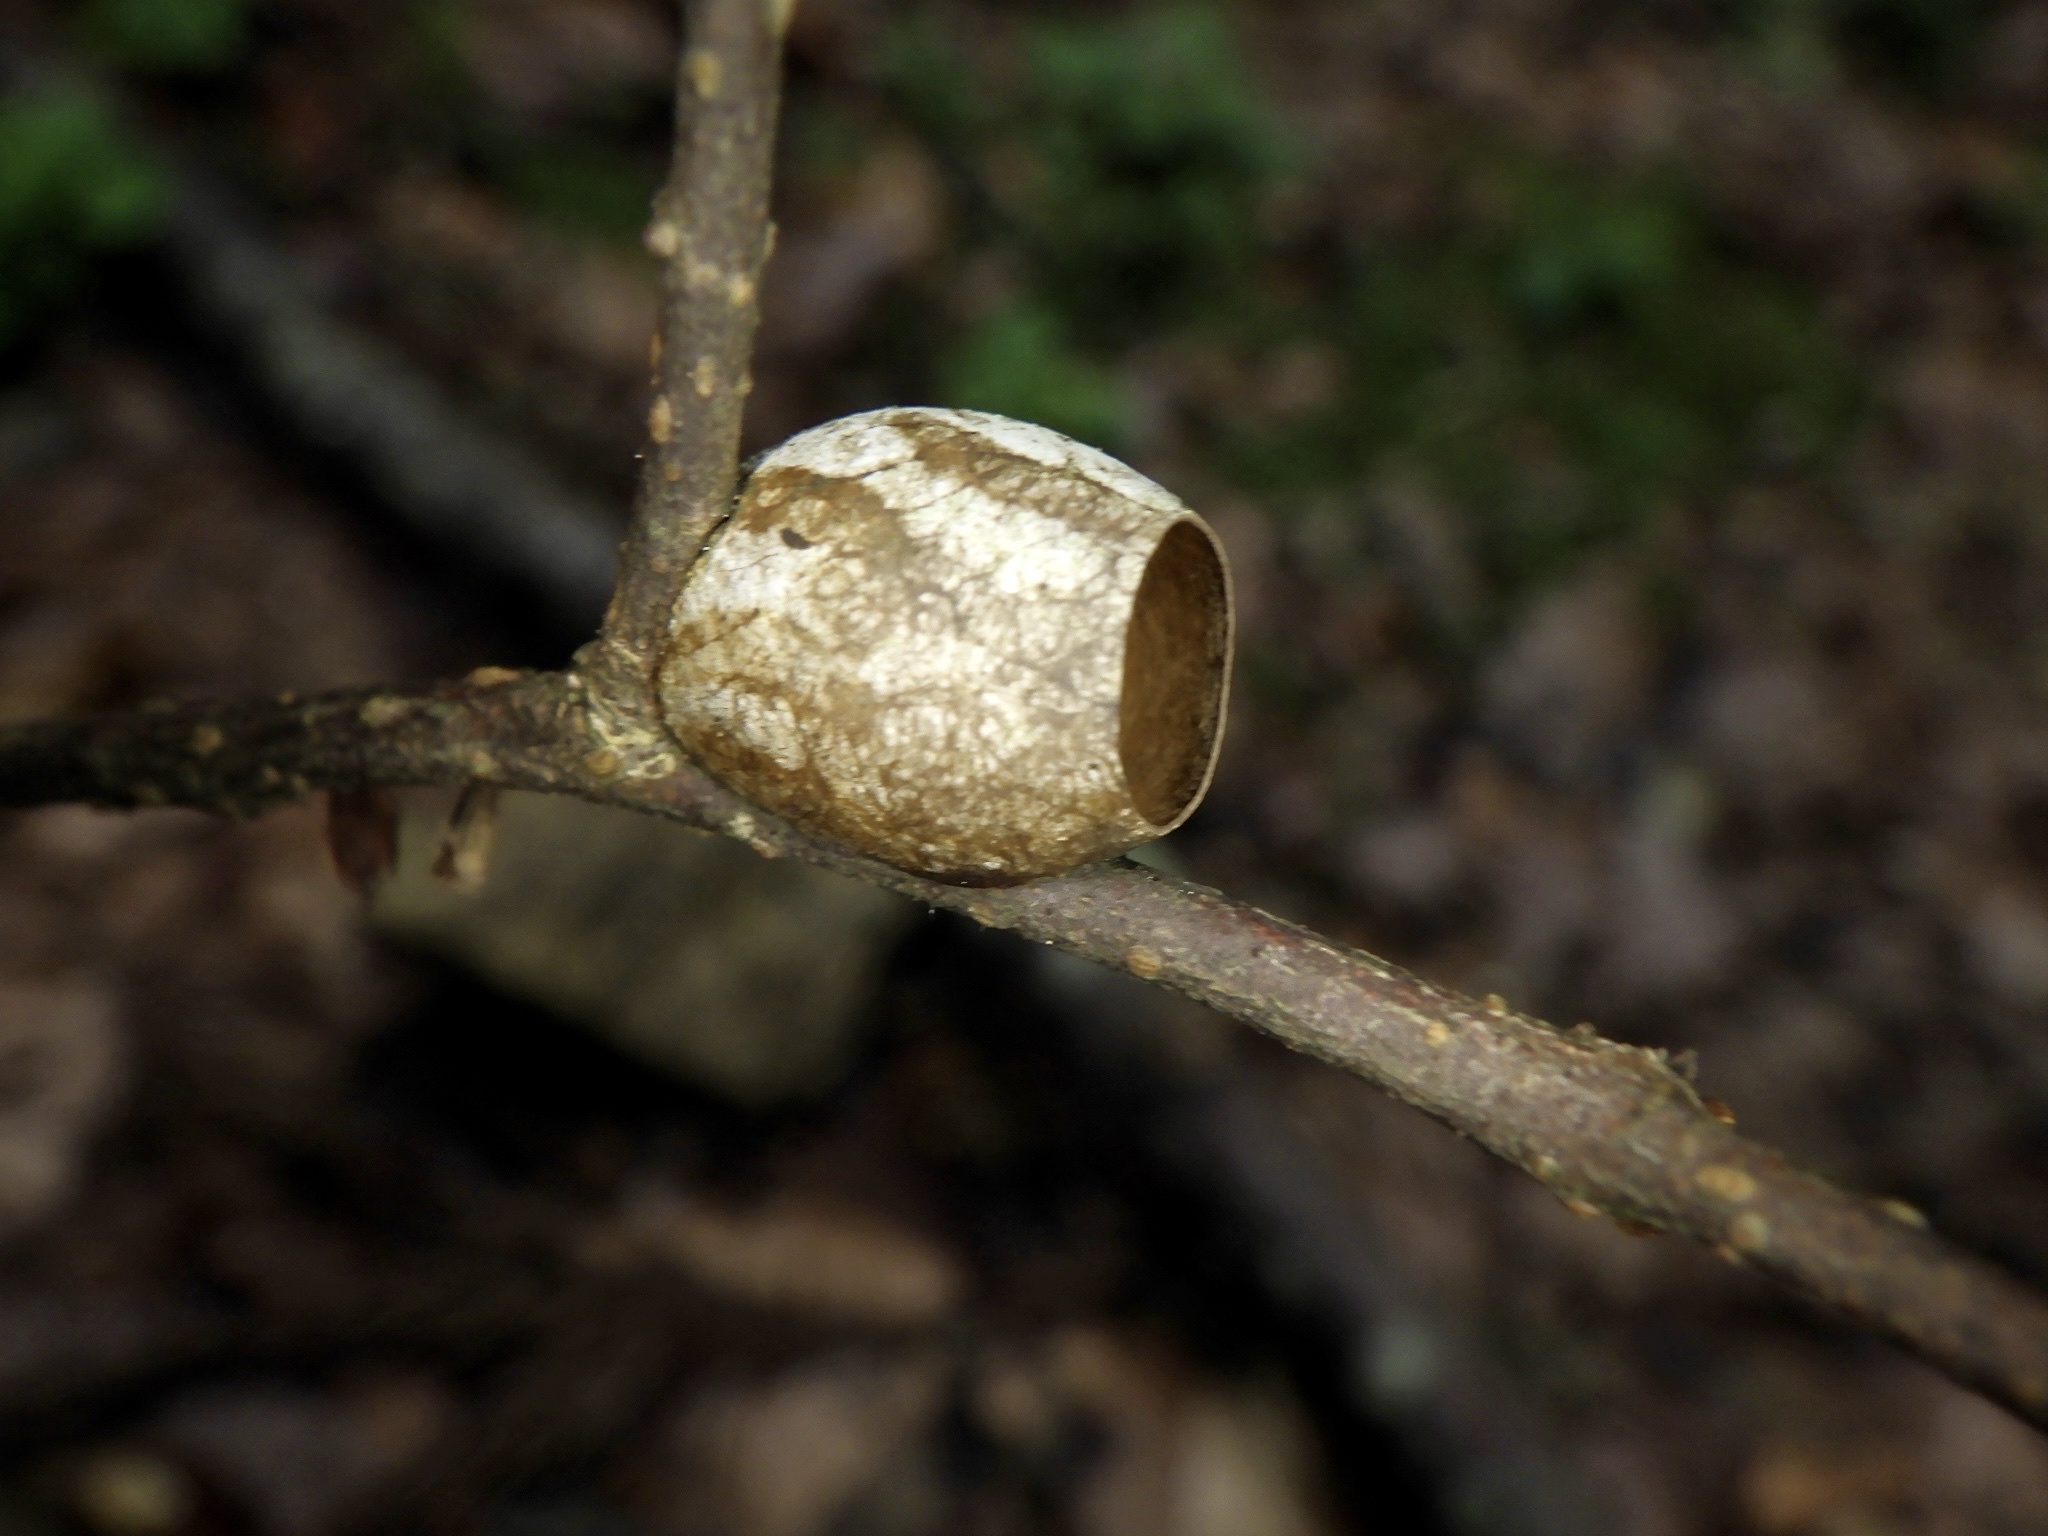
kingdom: Animalia
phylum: Arthropoda
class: Insecta
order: Lepidoptera
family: Limacodidae
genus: Monema
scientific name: Monema flavescens
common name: Oriental moth
